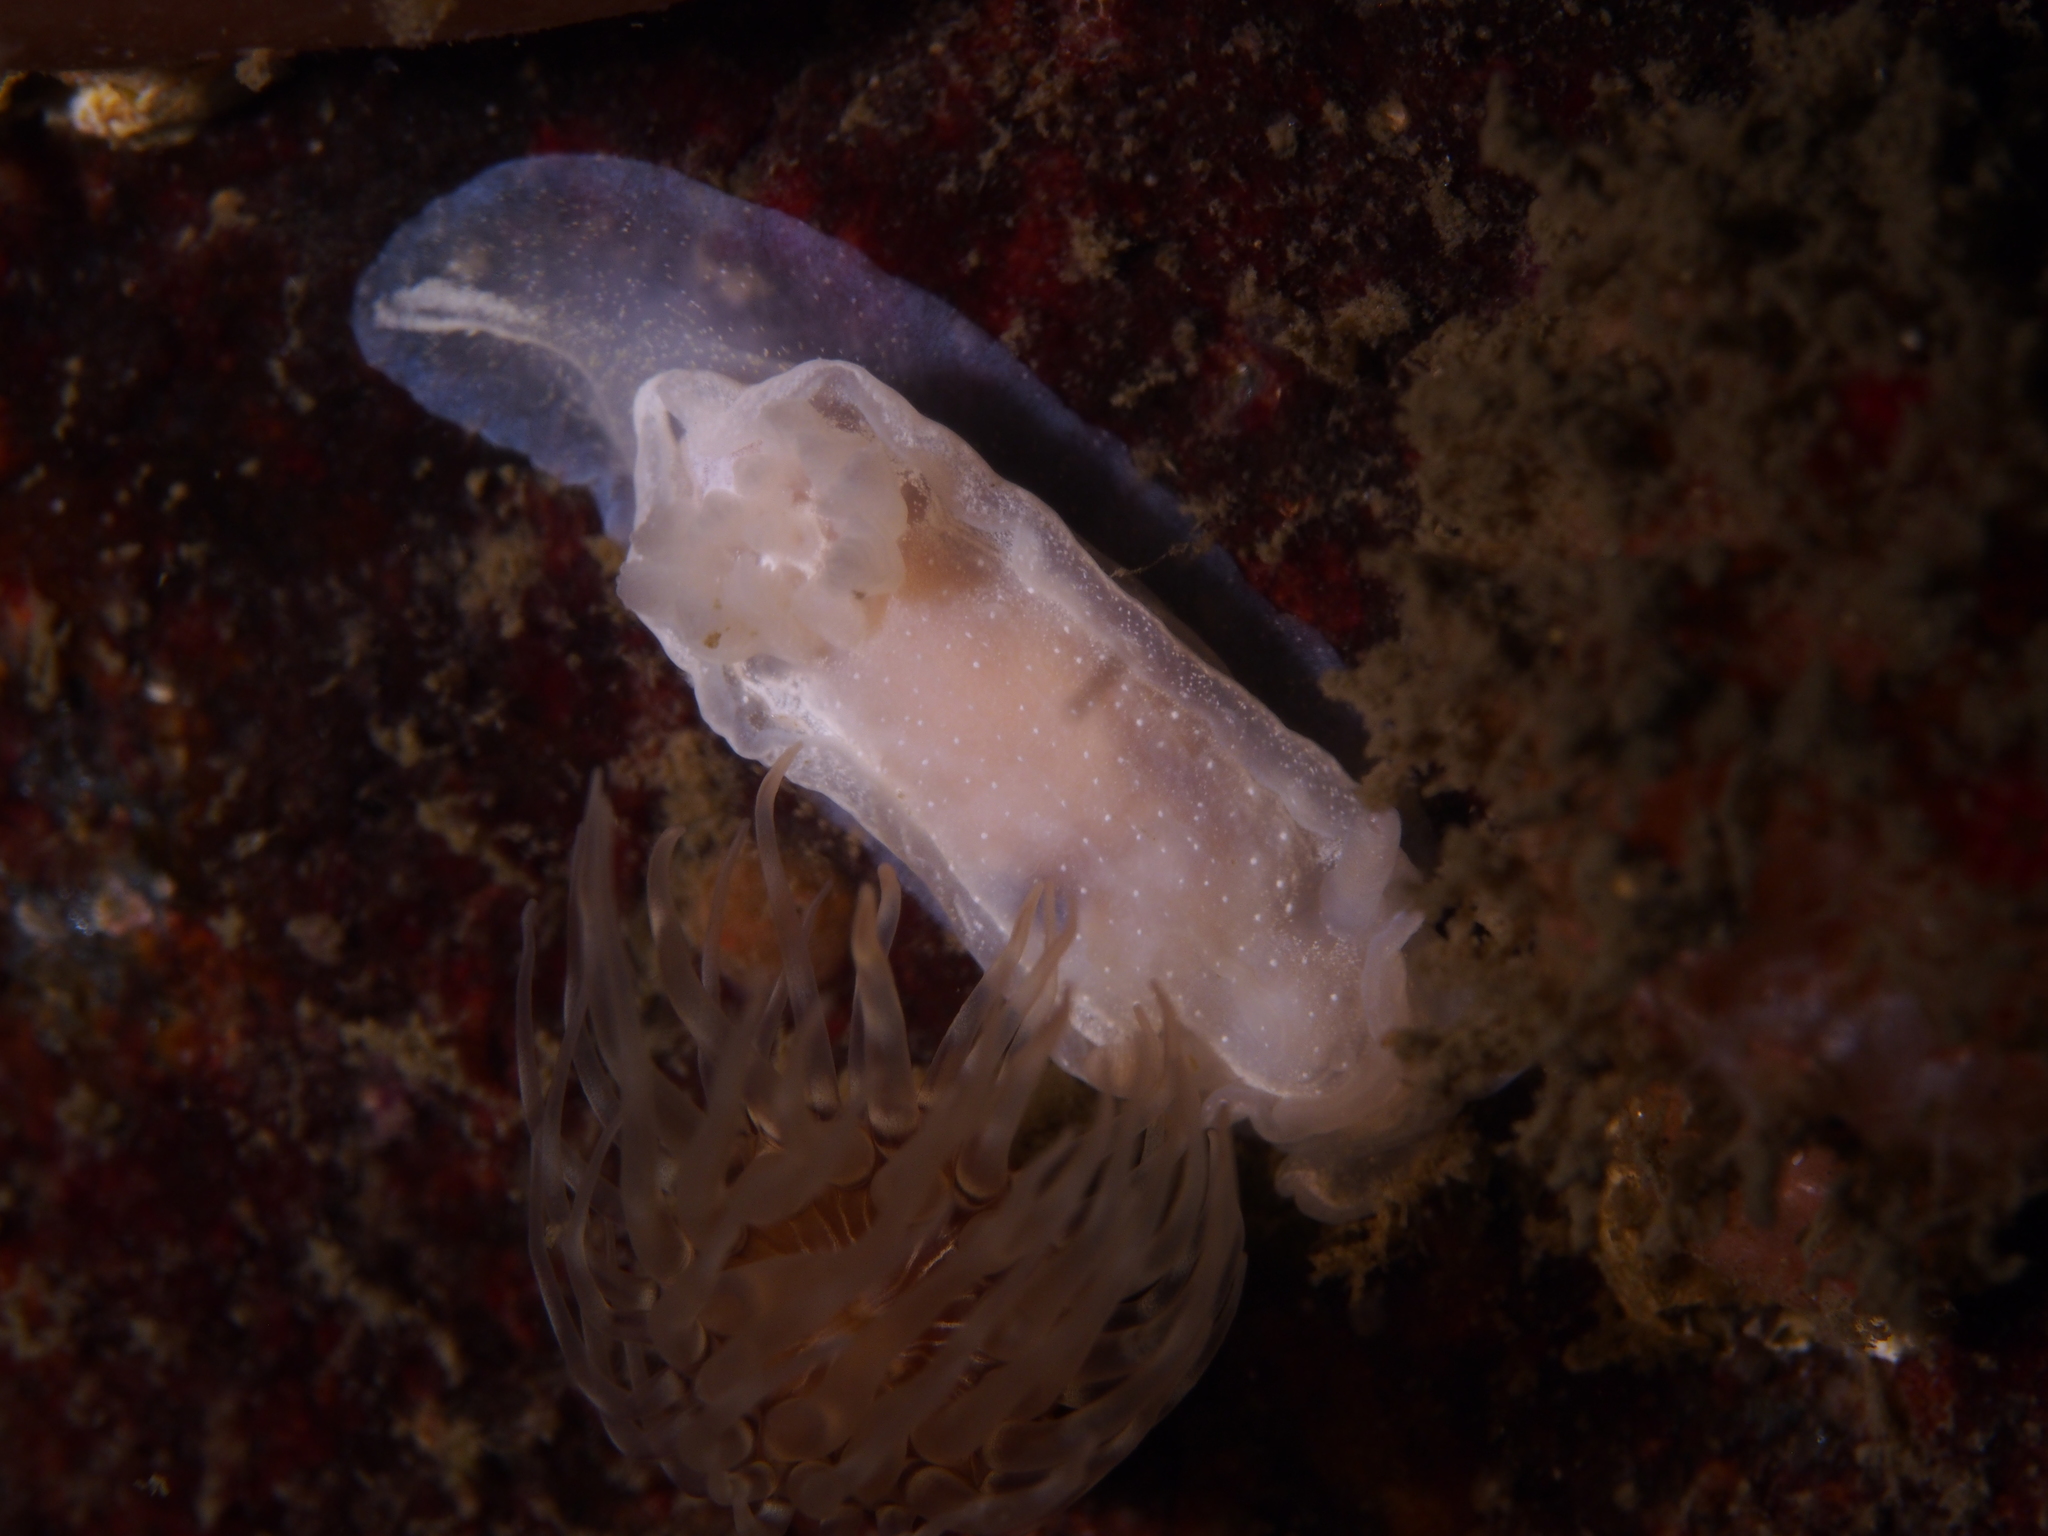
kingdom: Animalia
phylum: Mollusca
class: Gastropoda
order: Nudibranchia
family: Goniodorididae
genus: Okenia
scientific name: Okenia
